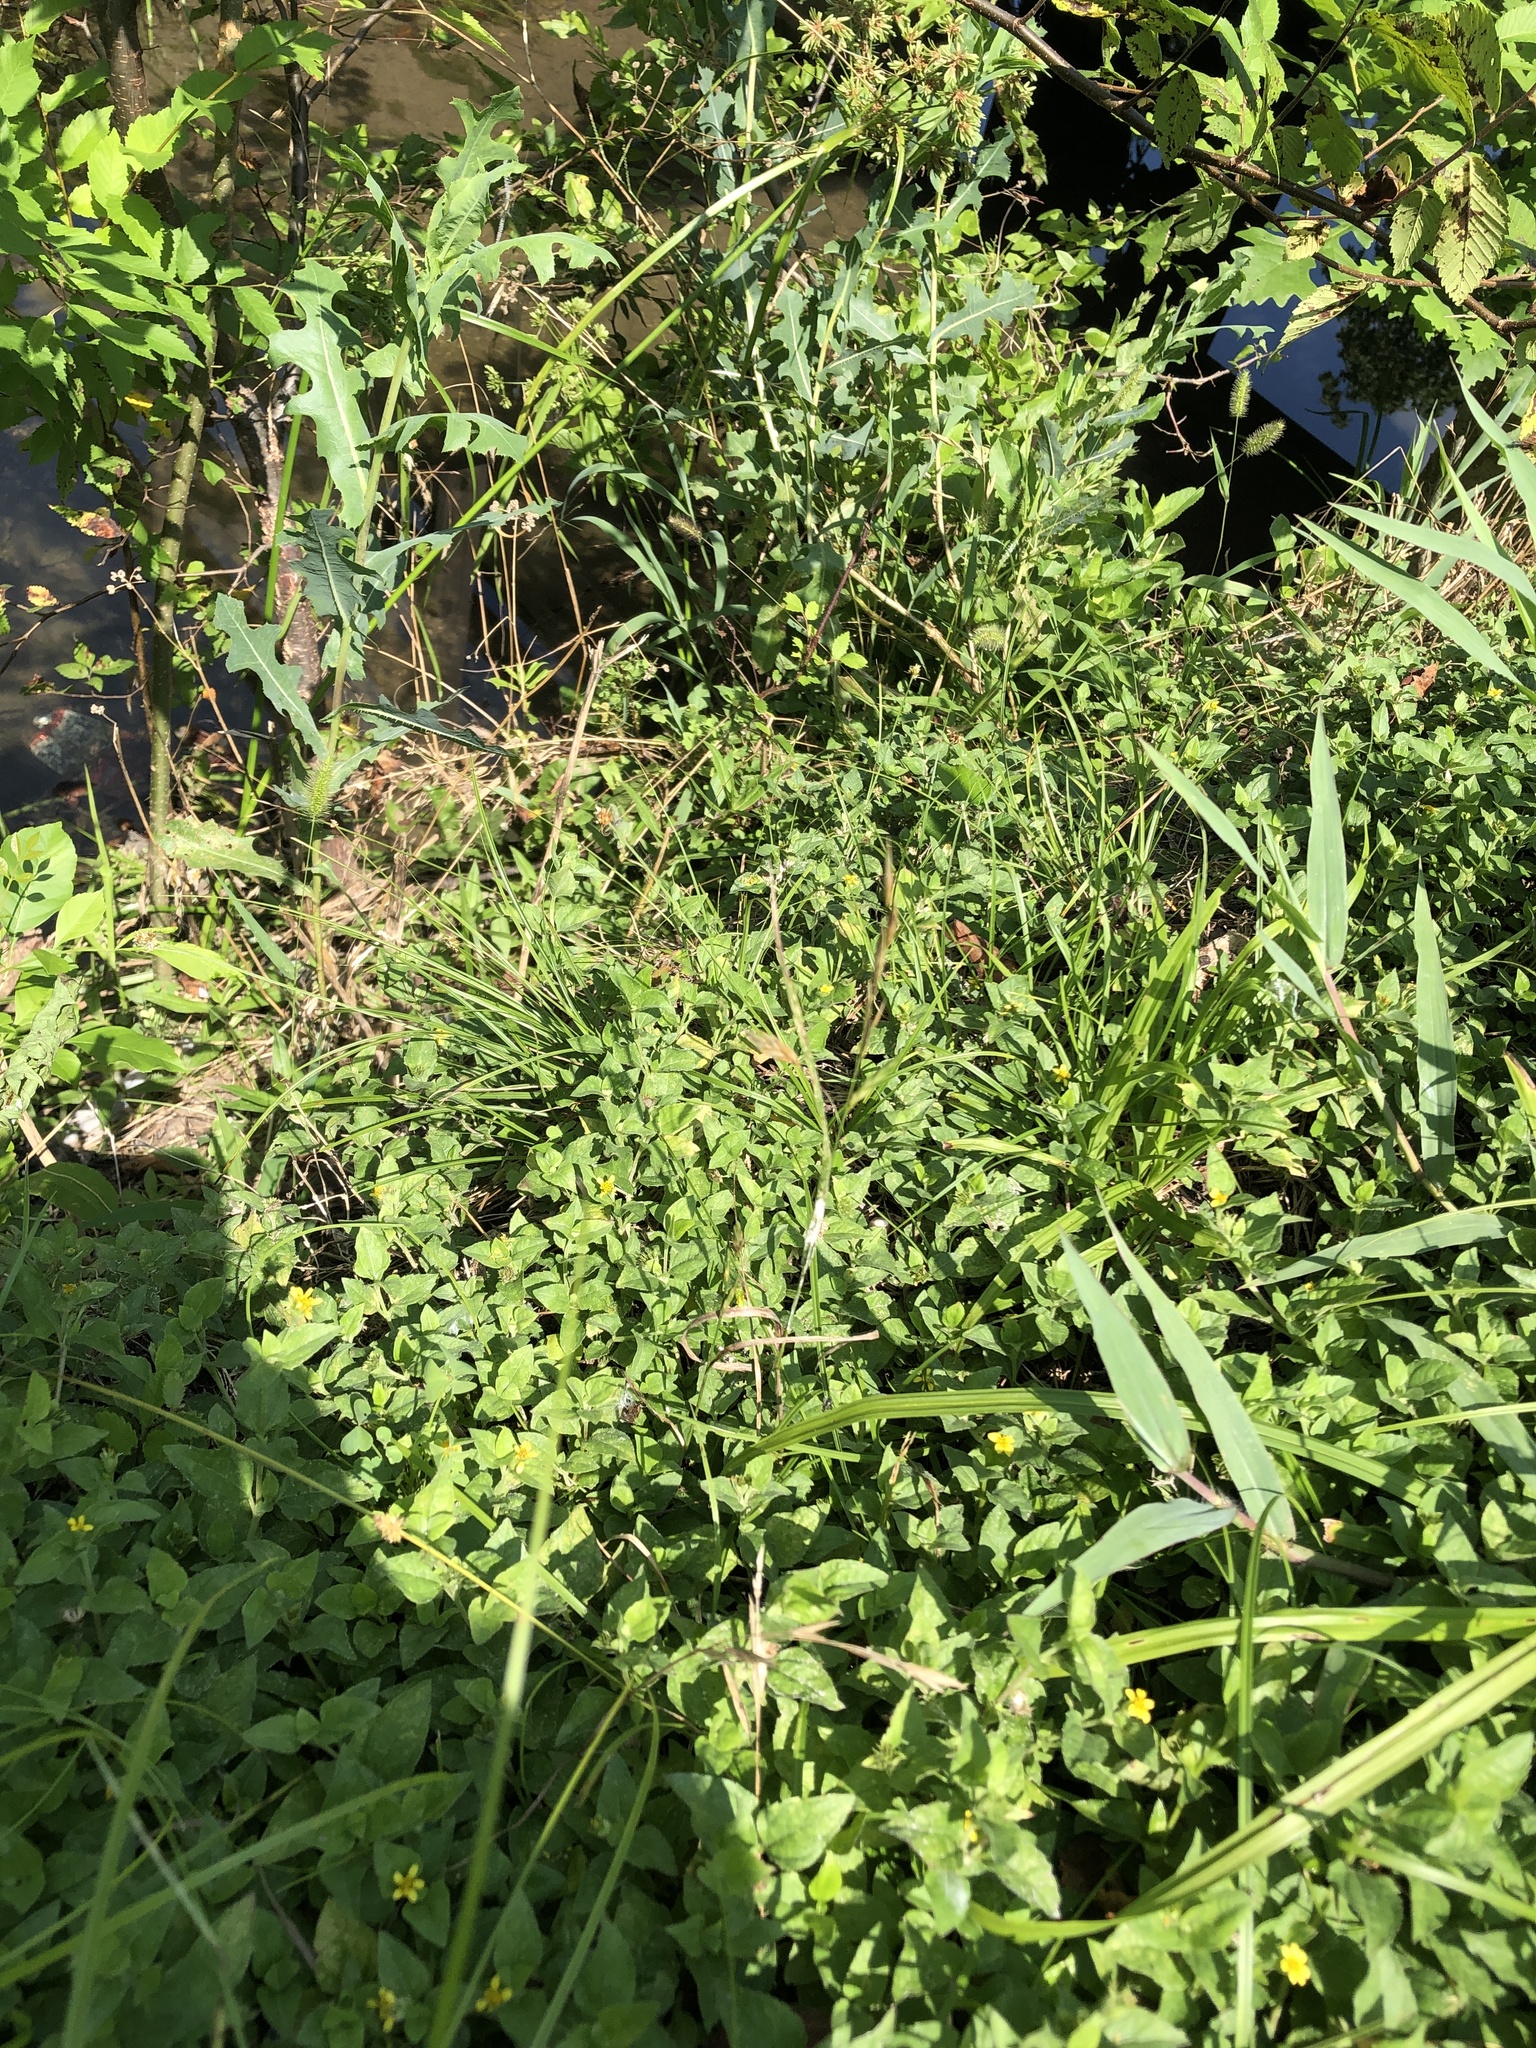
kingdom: Plantae
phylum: Tracheophyta
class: Liliopsida
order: Poales
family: Poaceae
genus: Bromus
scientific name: Bromus catharticus
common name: Rescuegrass
